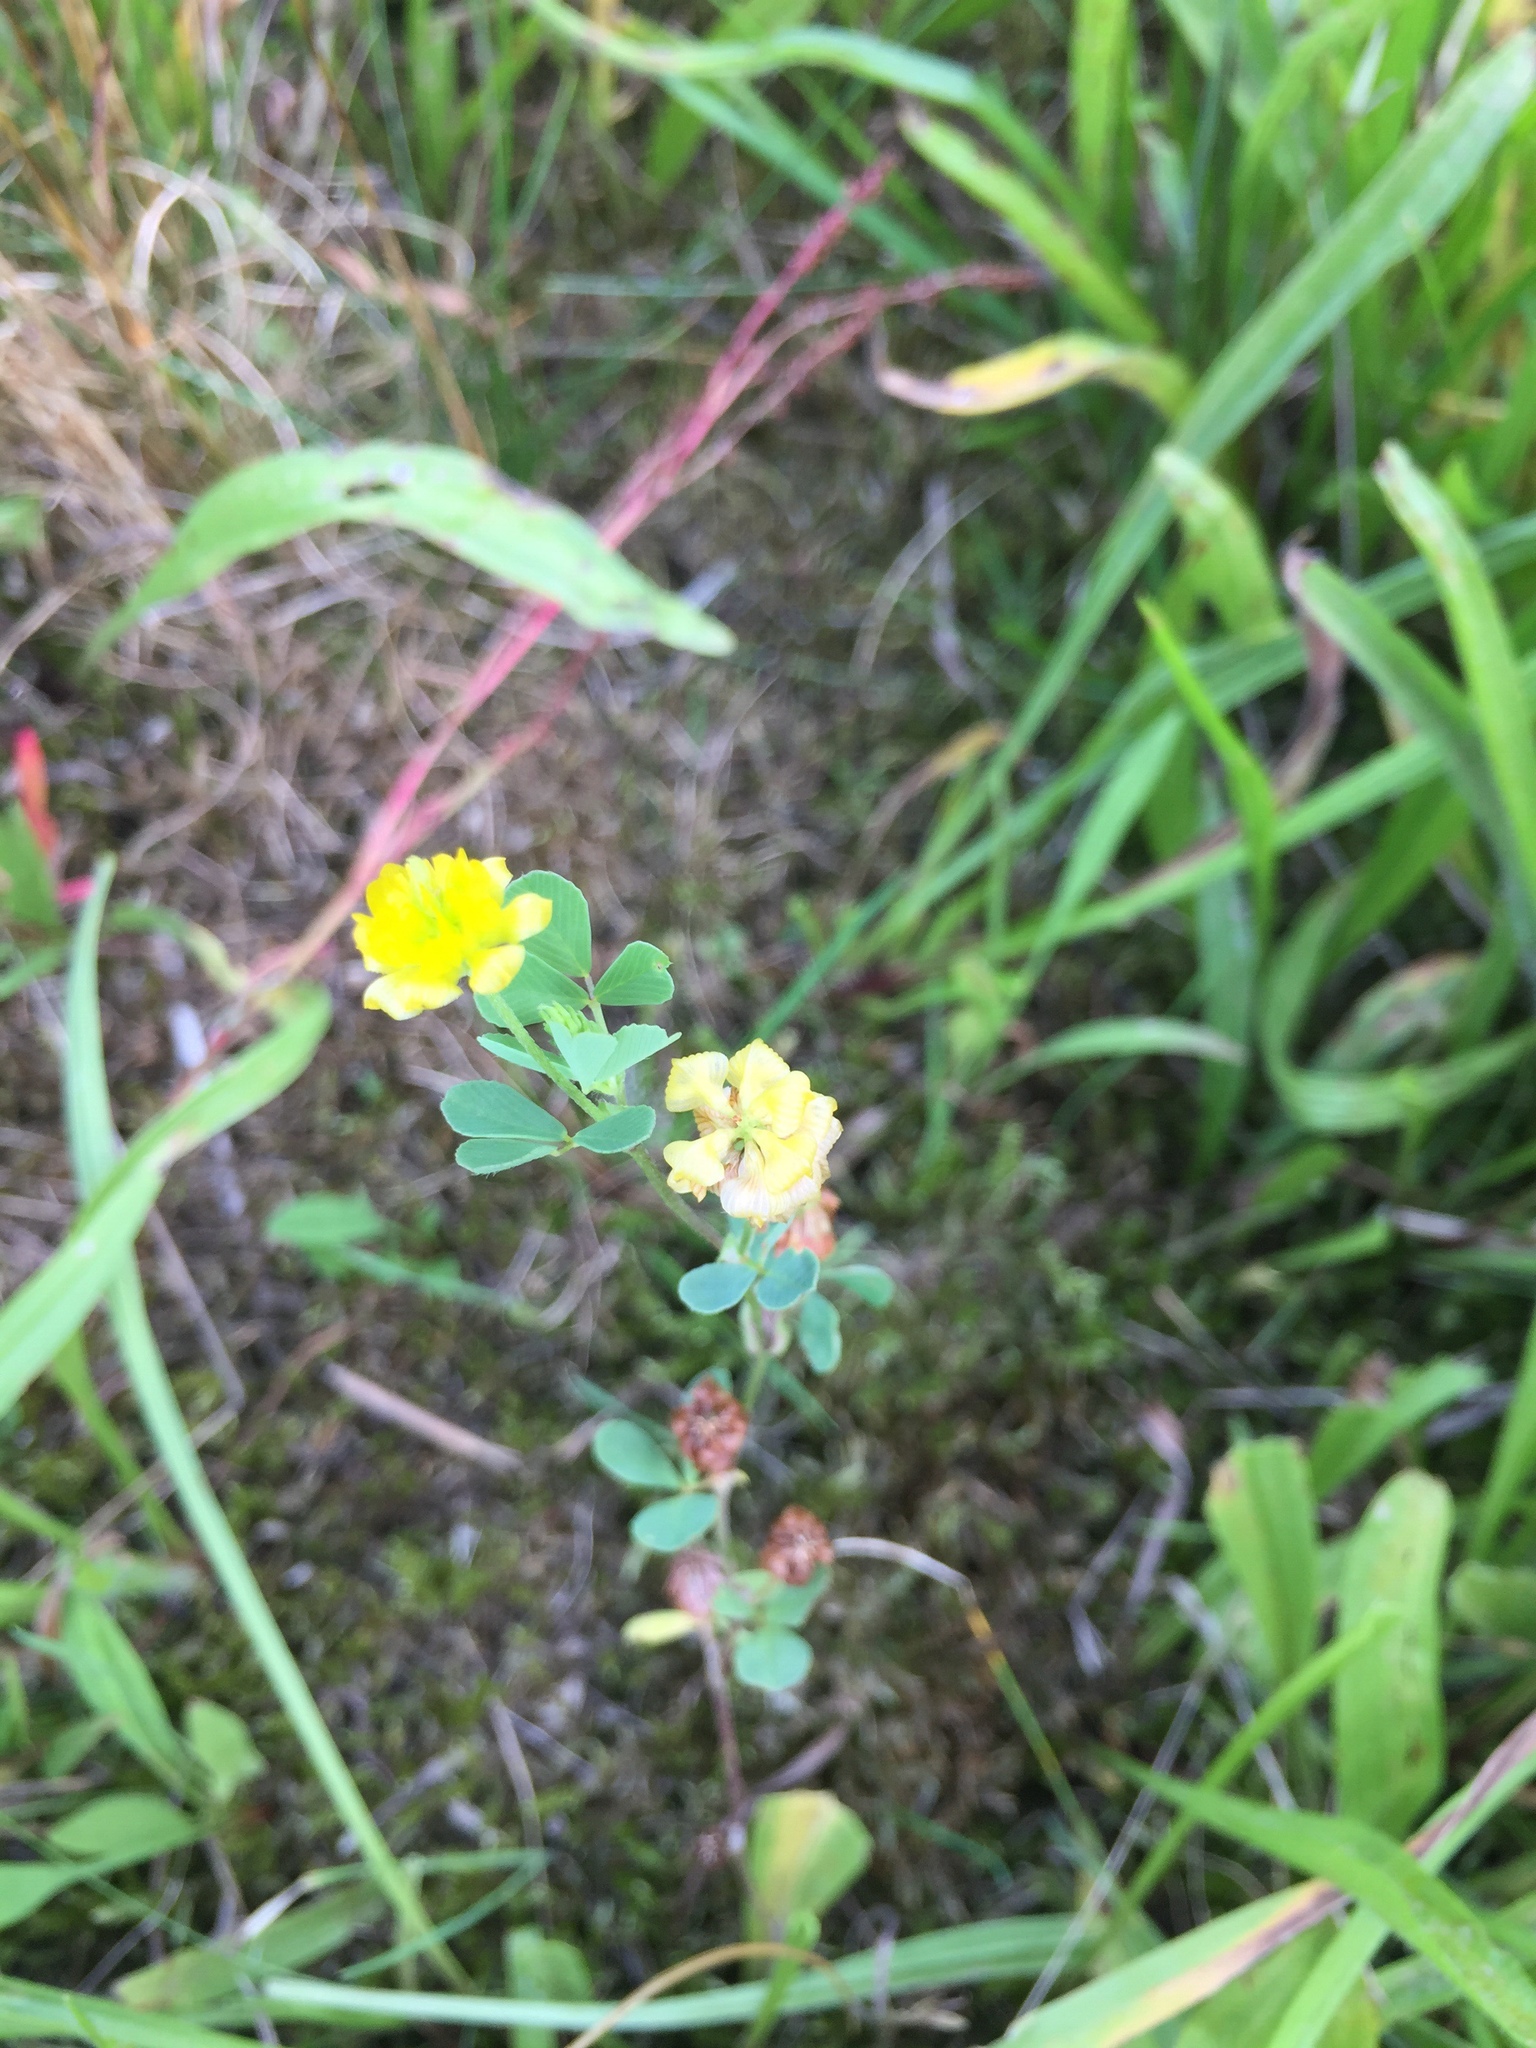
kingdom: Plantae
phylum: Tracheophyta
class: Magnoliopsida
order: Fabales
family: Fabaceae
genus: Trifolium
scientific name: Trifolium campestre
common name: Field clover
